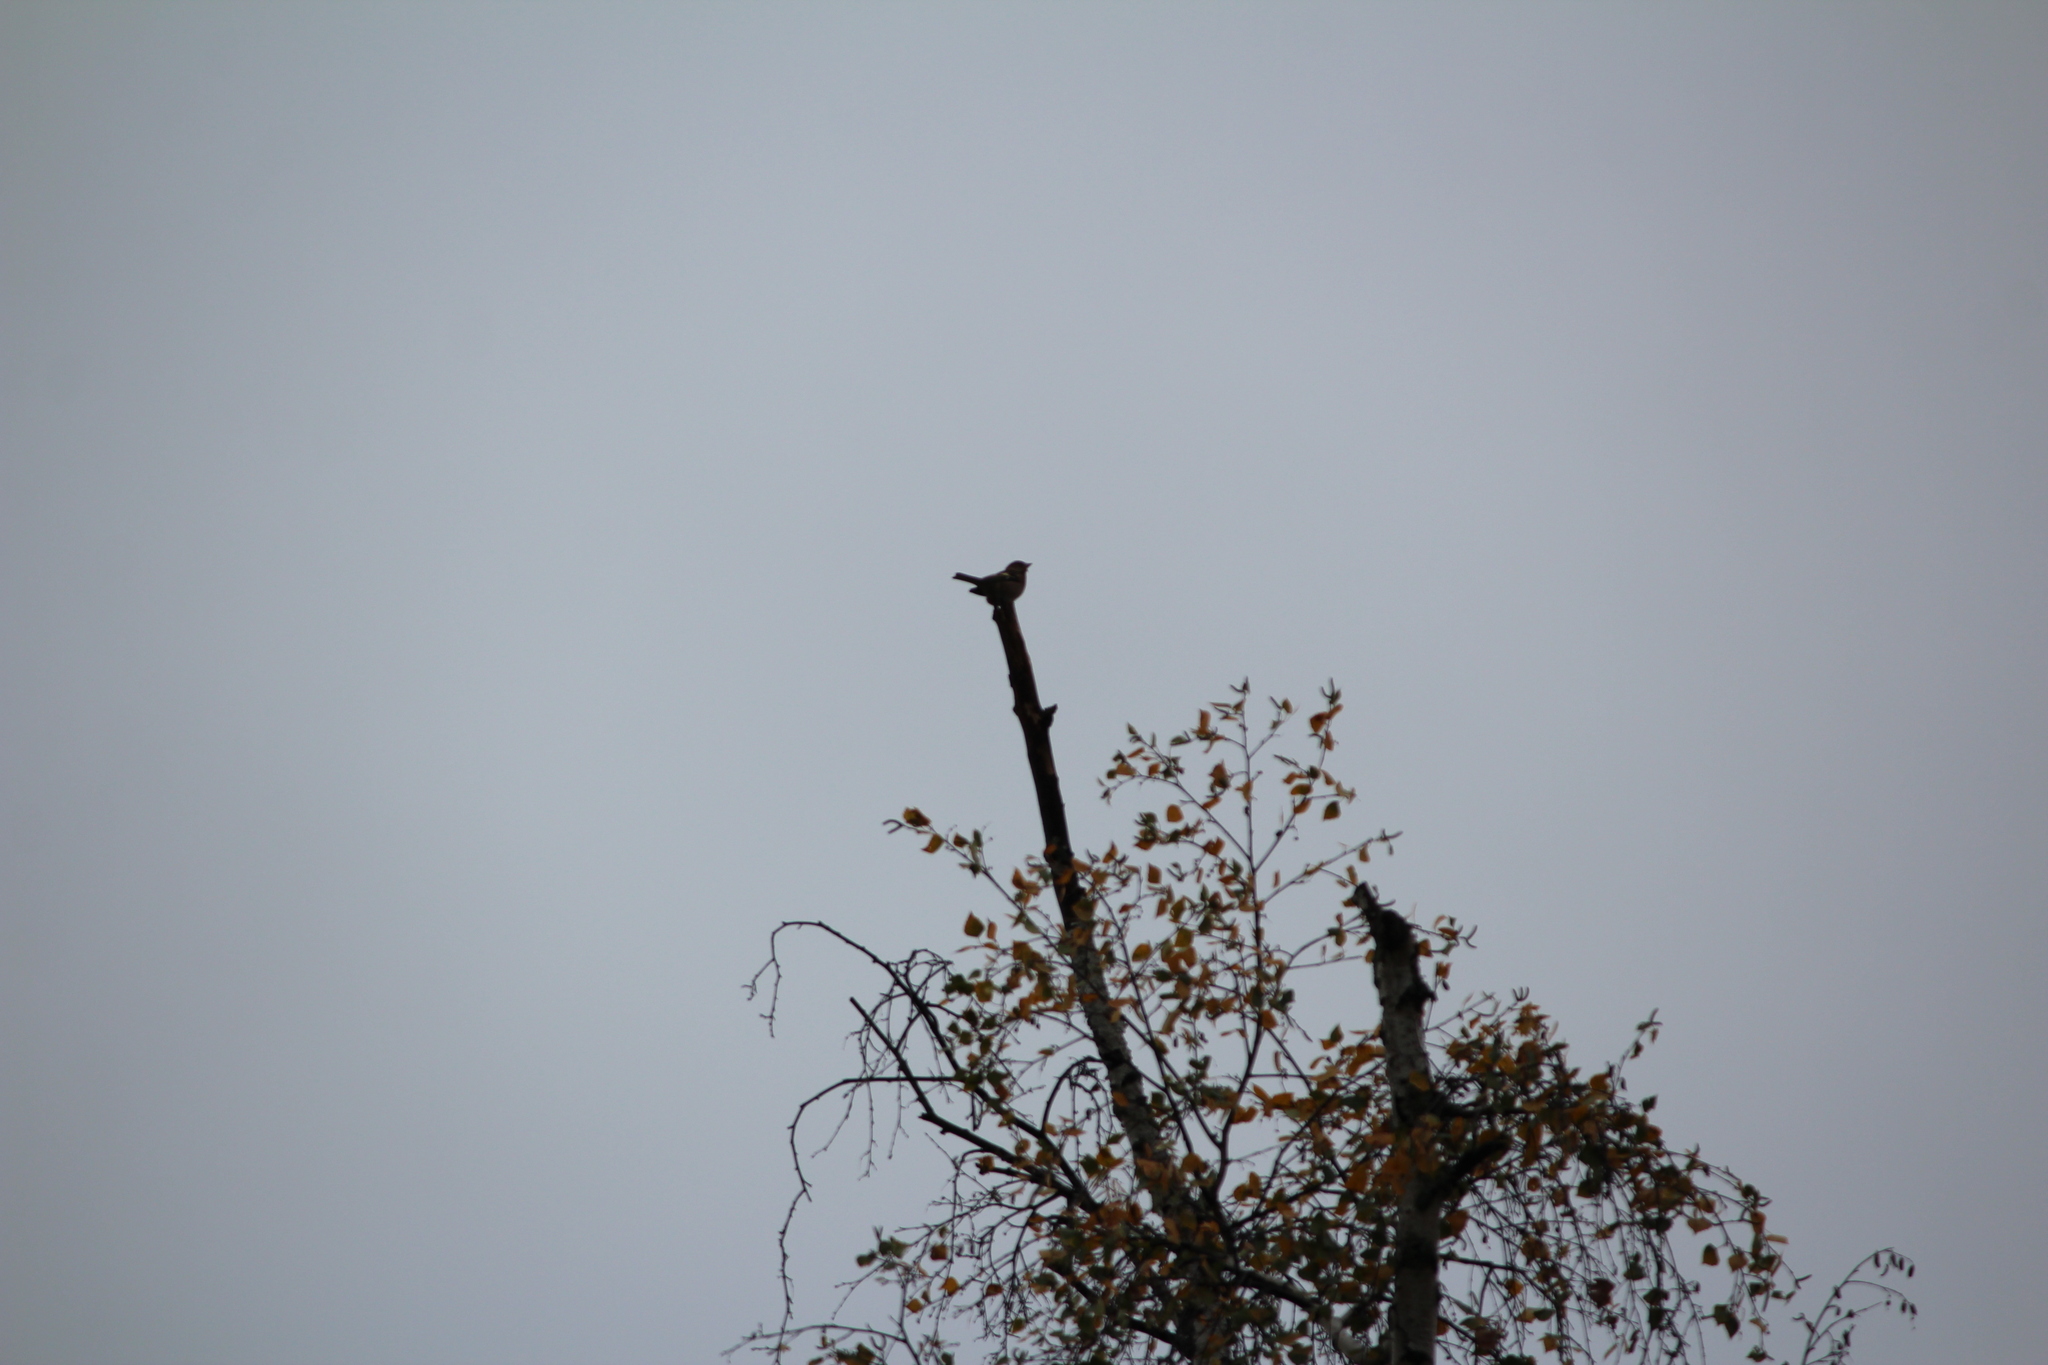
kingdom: Animalia
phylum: Chordata
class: Aves
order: Passeriformes
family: Fringillidae
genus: Fringilla
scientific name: Fringilla coelebs
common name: Common chaffinch
